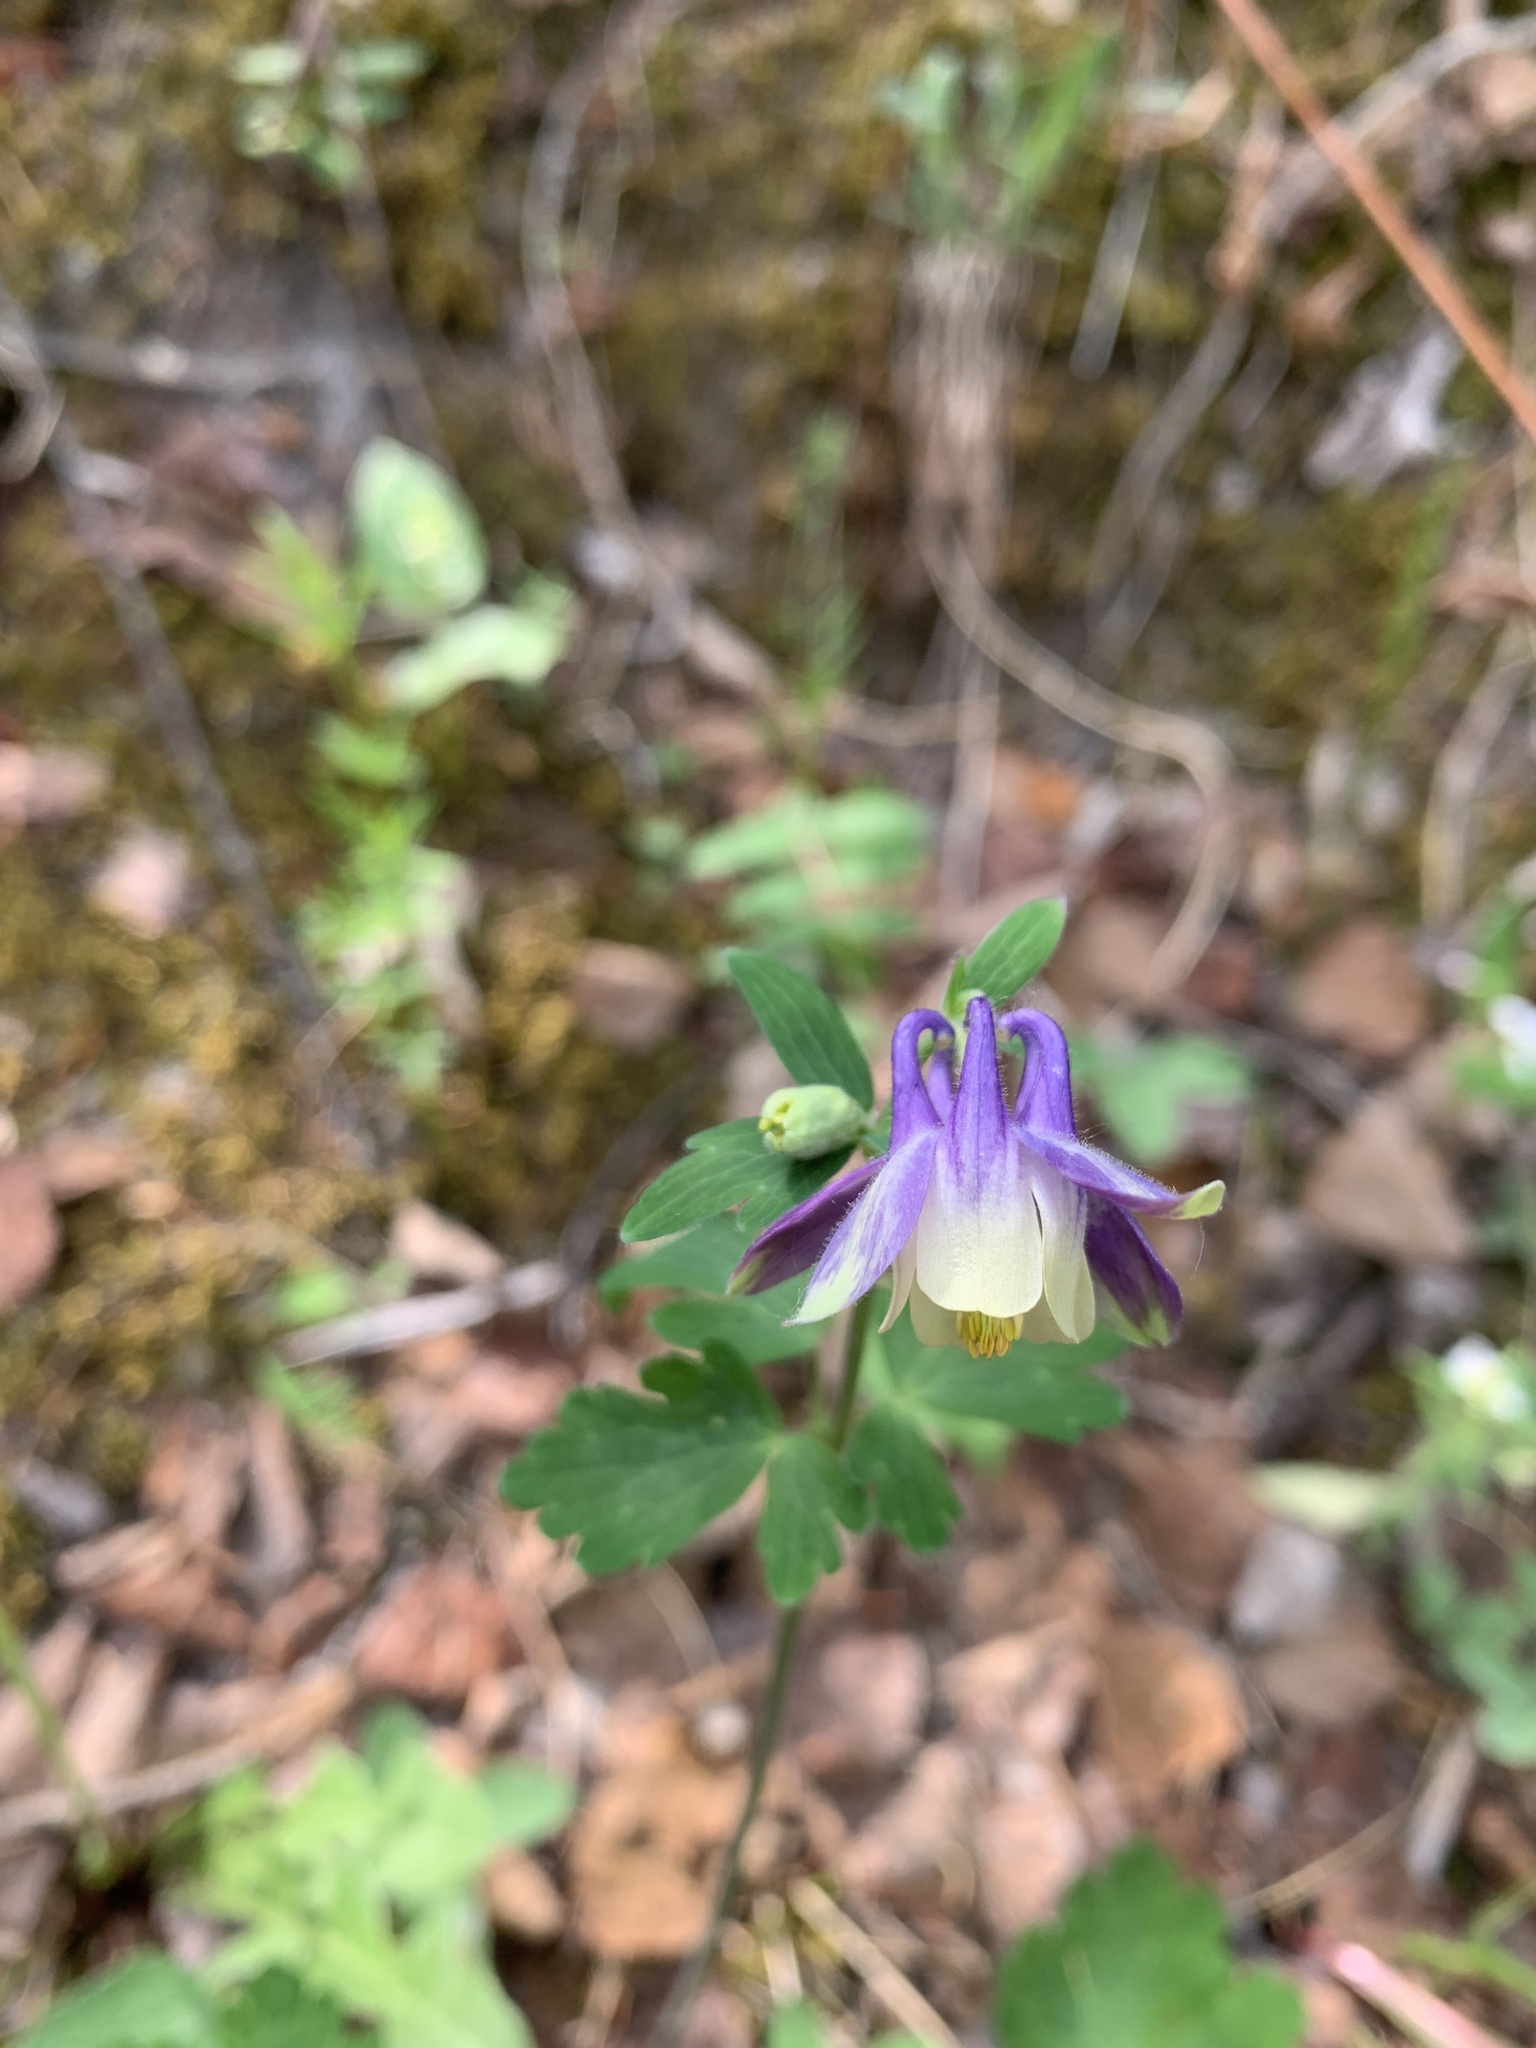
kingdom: Plantae
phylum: Tracheophyta
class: Magnoliopsida
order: Ranunculales
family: Ranunculaceae
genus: Aquilegia
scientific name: Aquilegia brevistyla
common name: Yukon columbine
